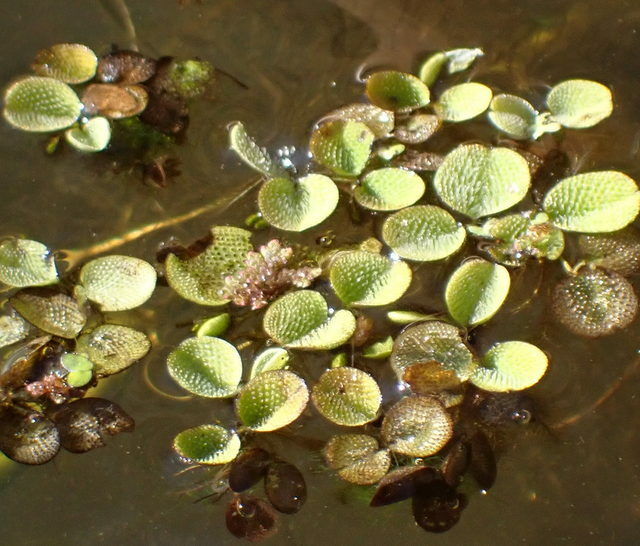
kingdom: Plantae
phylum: Tracheophyta
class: Polypodiopsida
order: Salviniales
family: Salviniaceae
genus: Salvinia
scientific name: Salvinia minima
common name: Water spangles
